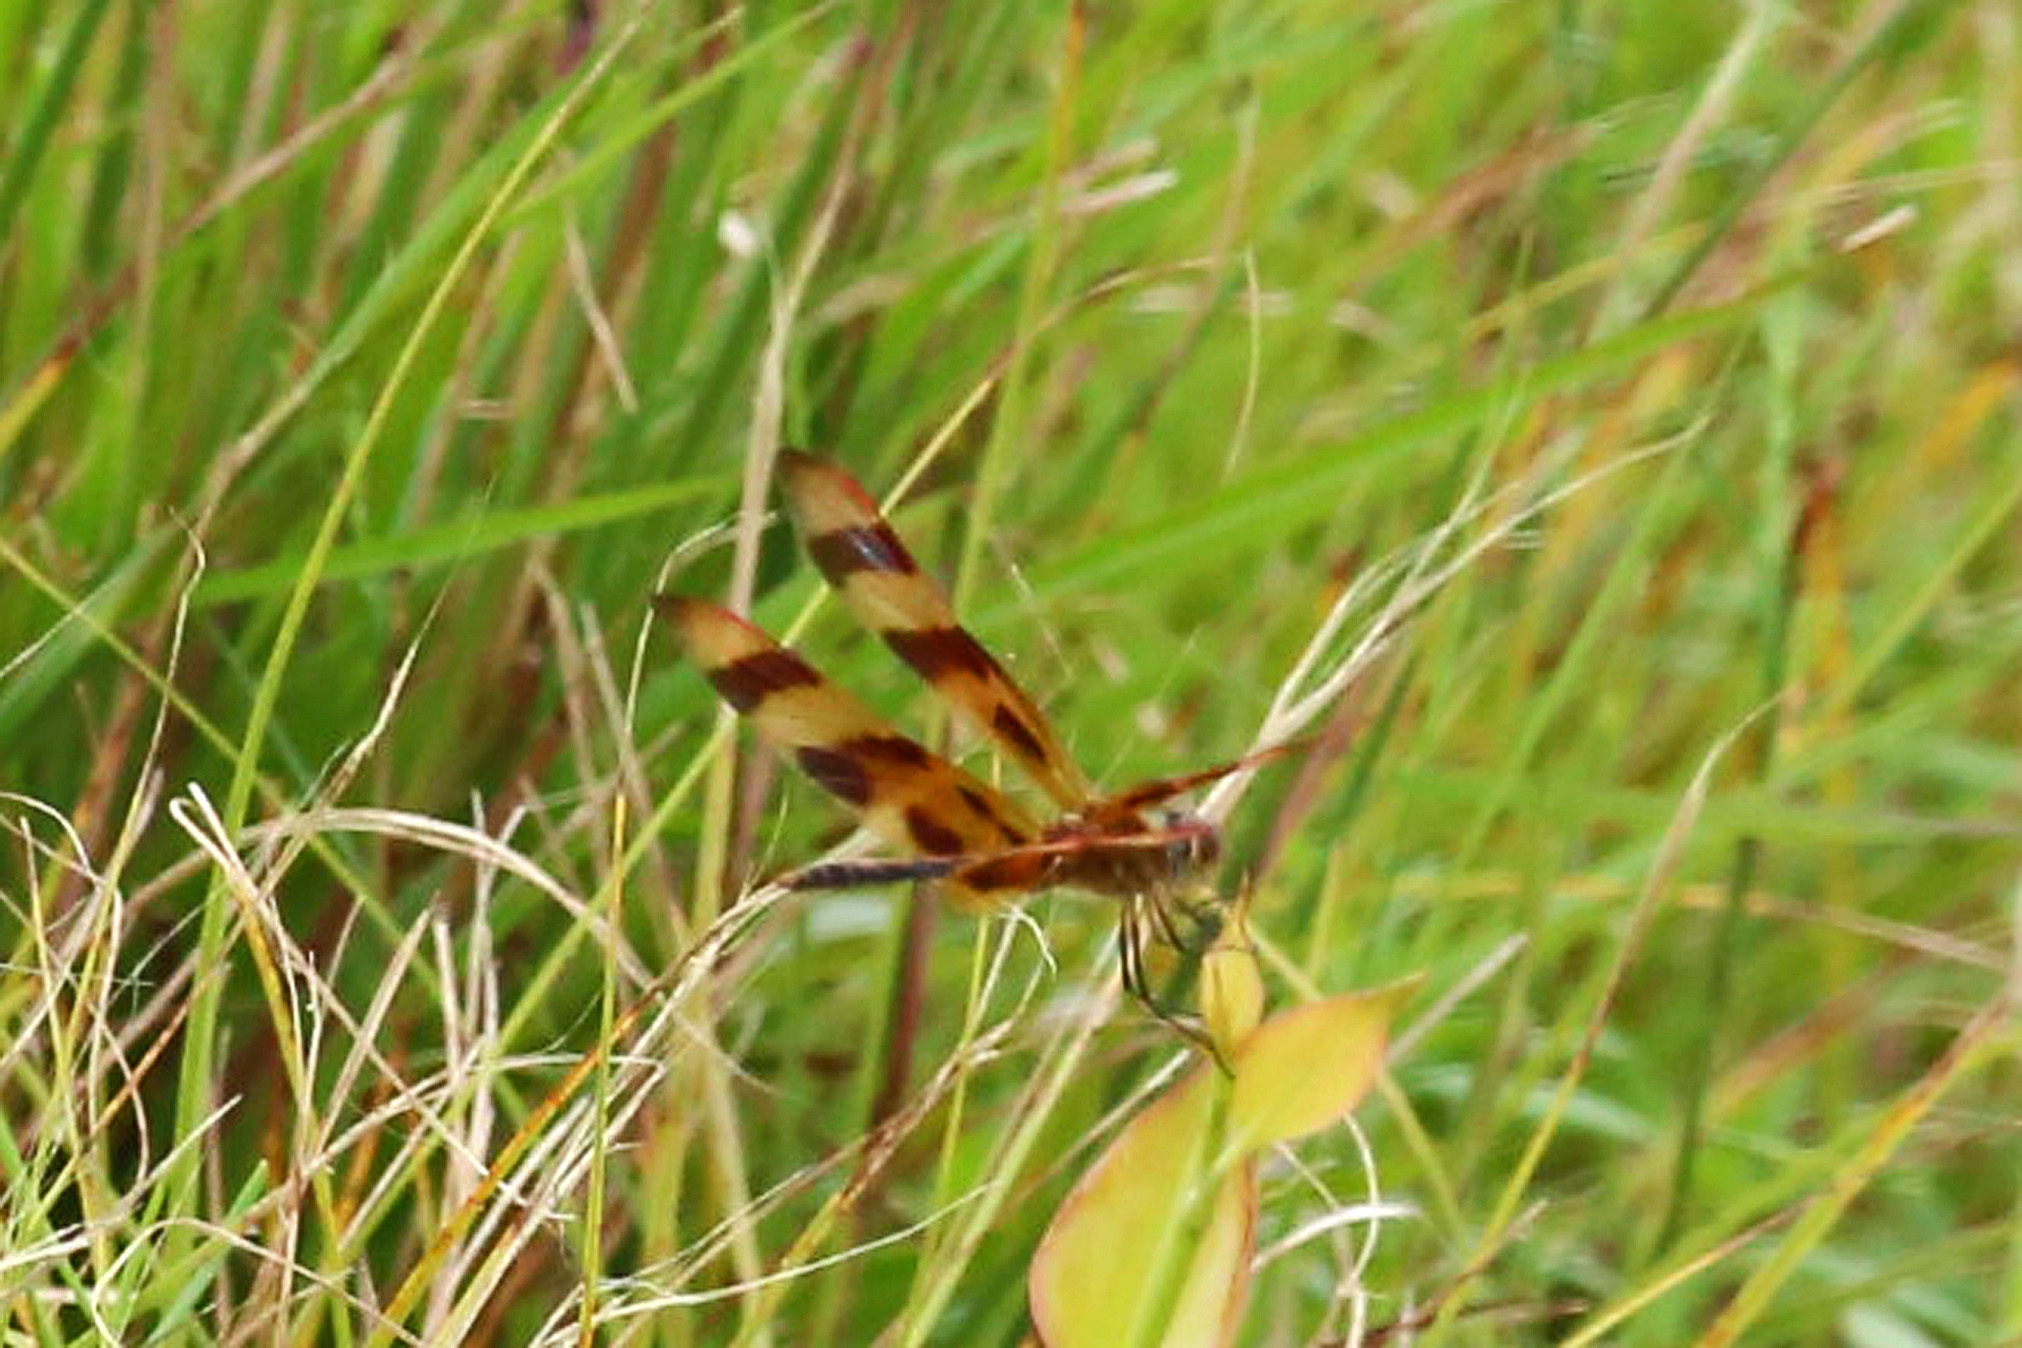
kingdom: Animalia
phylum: Arthropoda
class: Insecta
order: Odonata
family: Libellulidae
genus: Celithemis
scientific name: Celithemis eponina
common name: Halloween pennant
